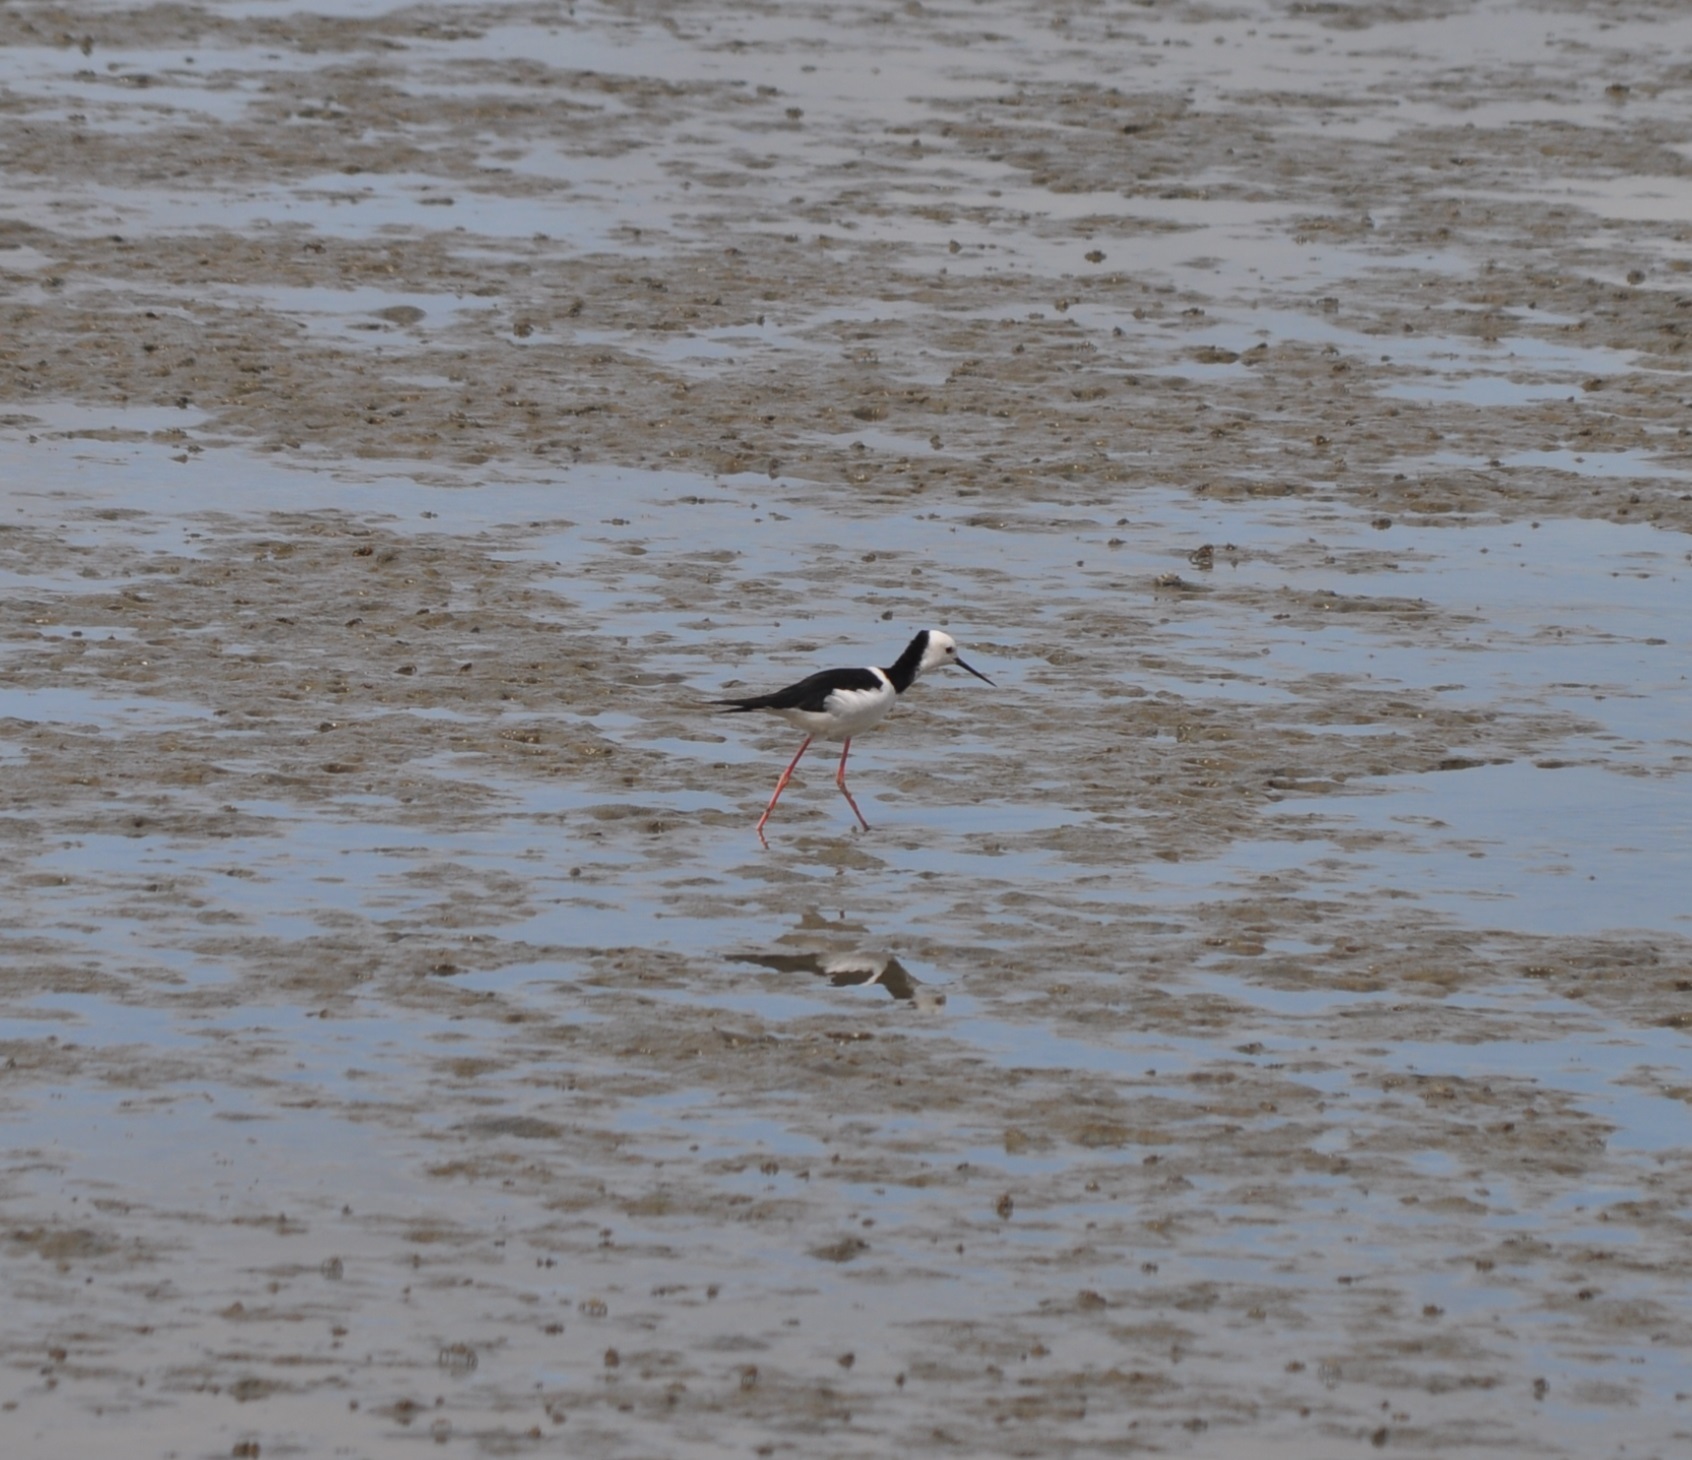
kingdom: Animalia
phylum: Chordata
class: Aves
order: Charadriiformes
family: Recurvirostridae
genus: Himantopus
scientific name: Himantopus leucocephalus
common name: White-headed stilt
